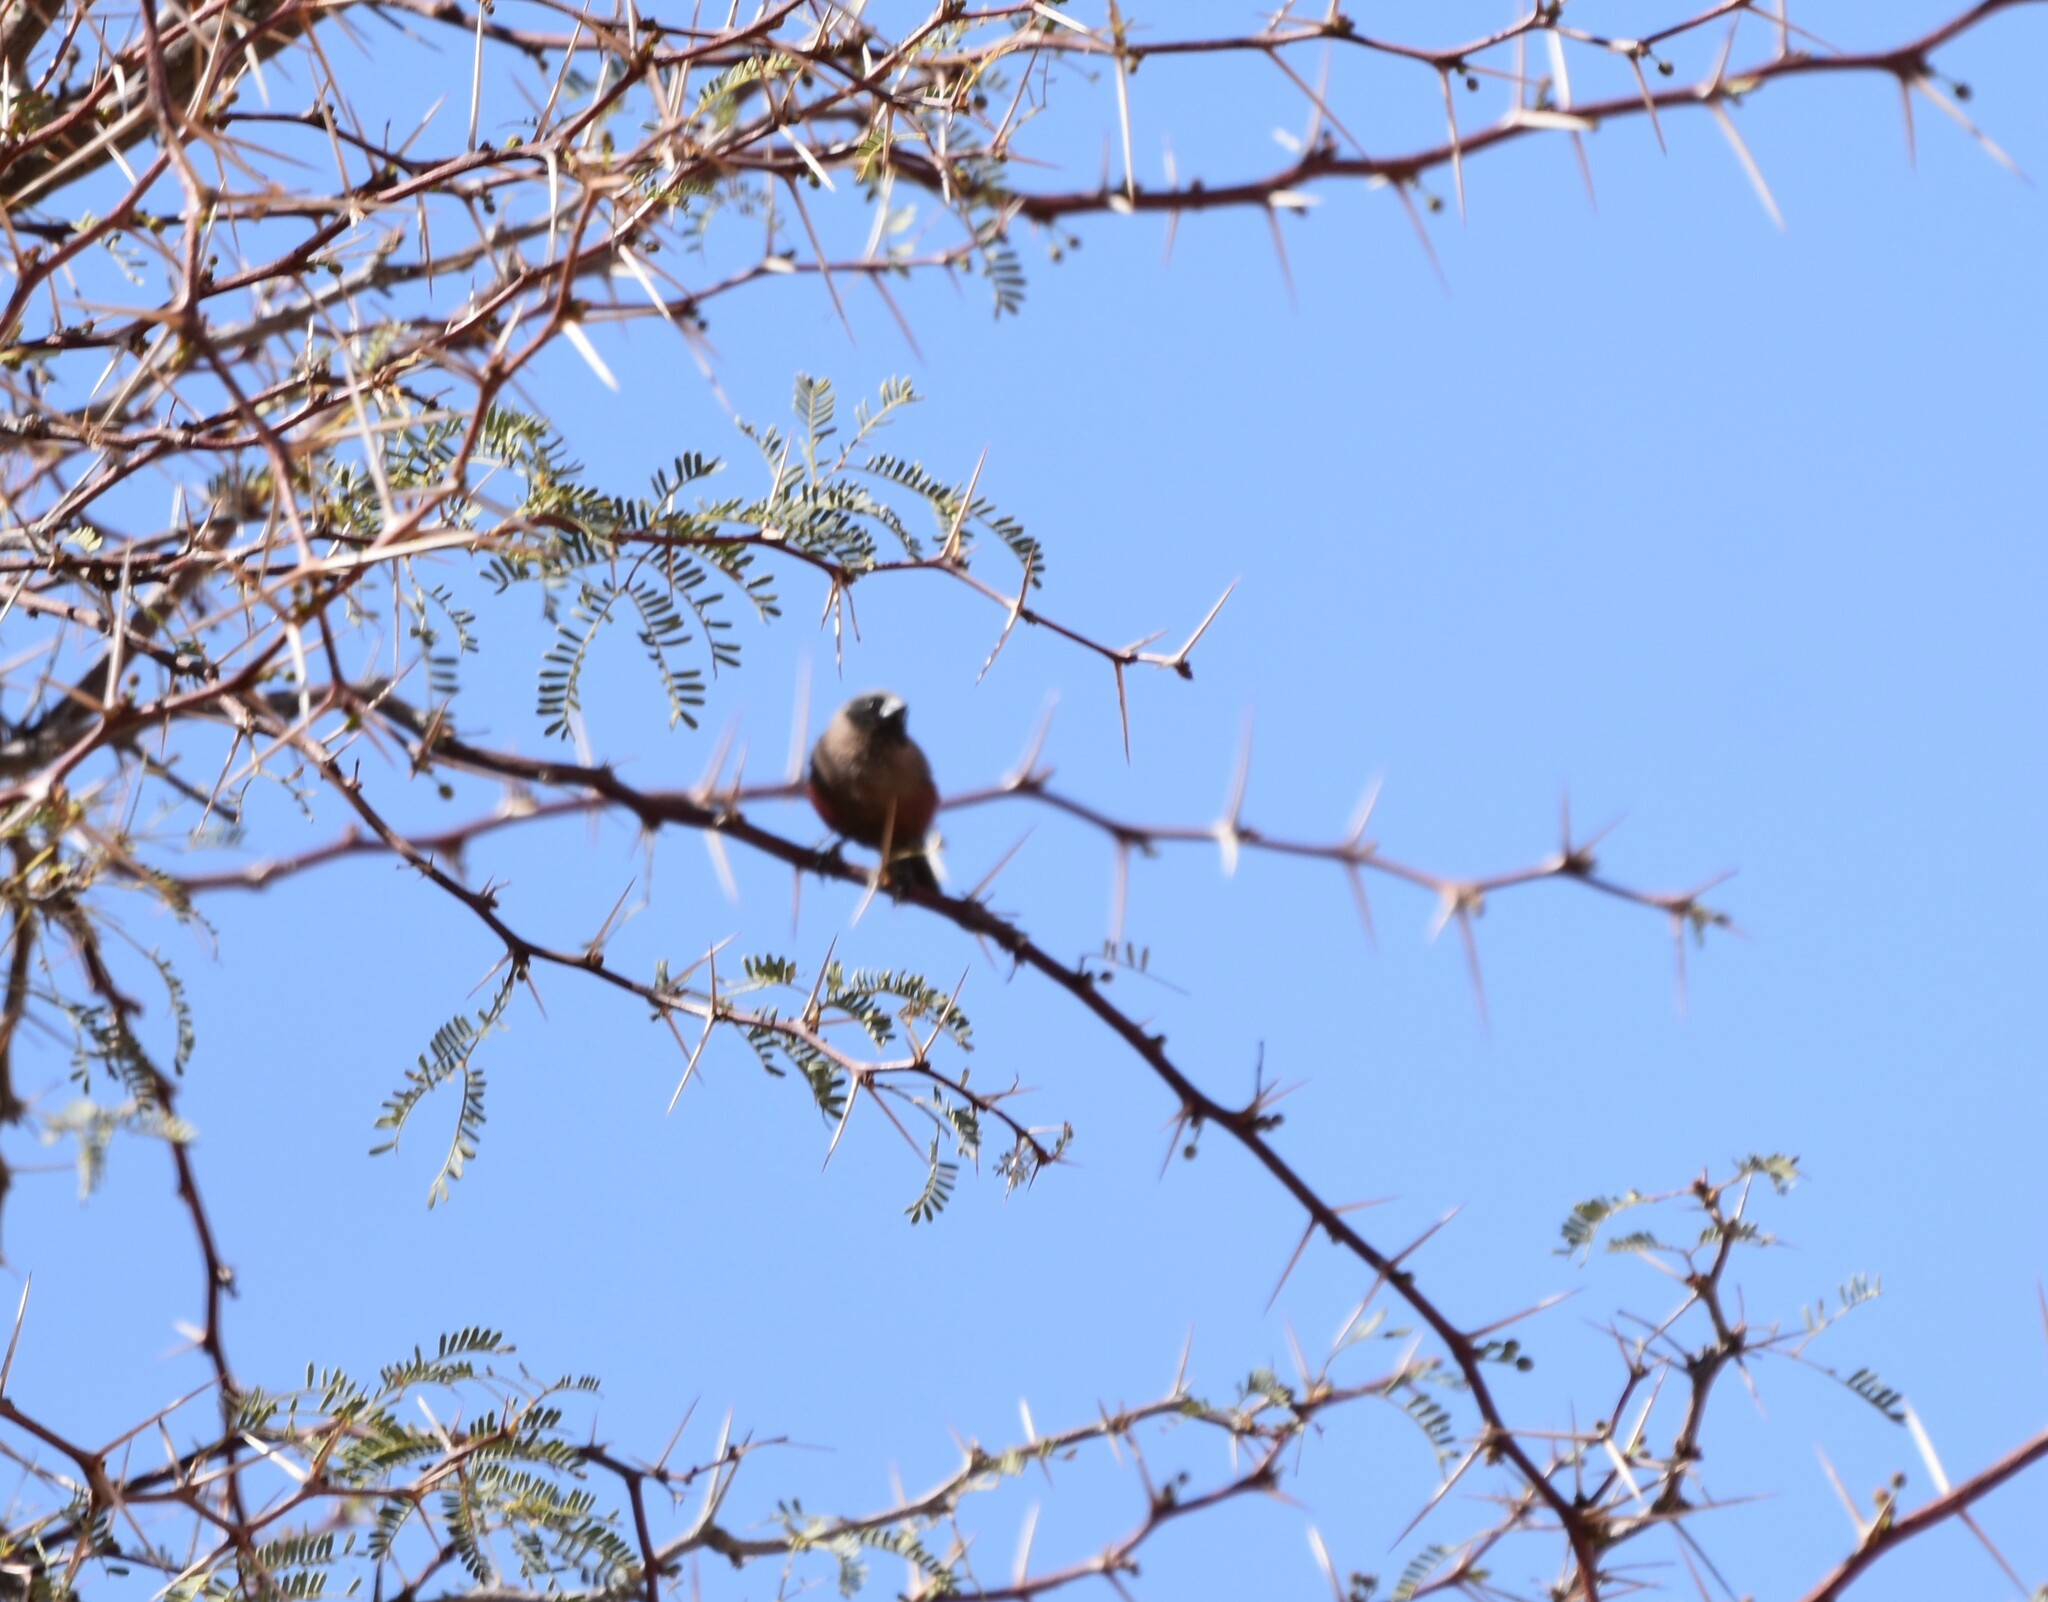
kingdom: Animalia
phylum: Chordata
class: Aves
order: Passeriformes
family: Estrildidae
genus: Estrilda
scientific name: Estrilda erythronotos
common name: Black-faced waxbill
